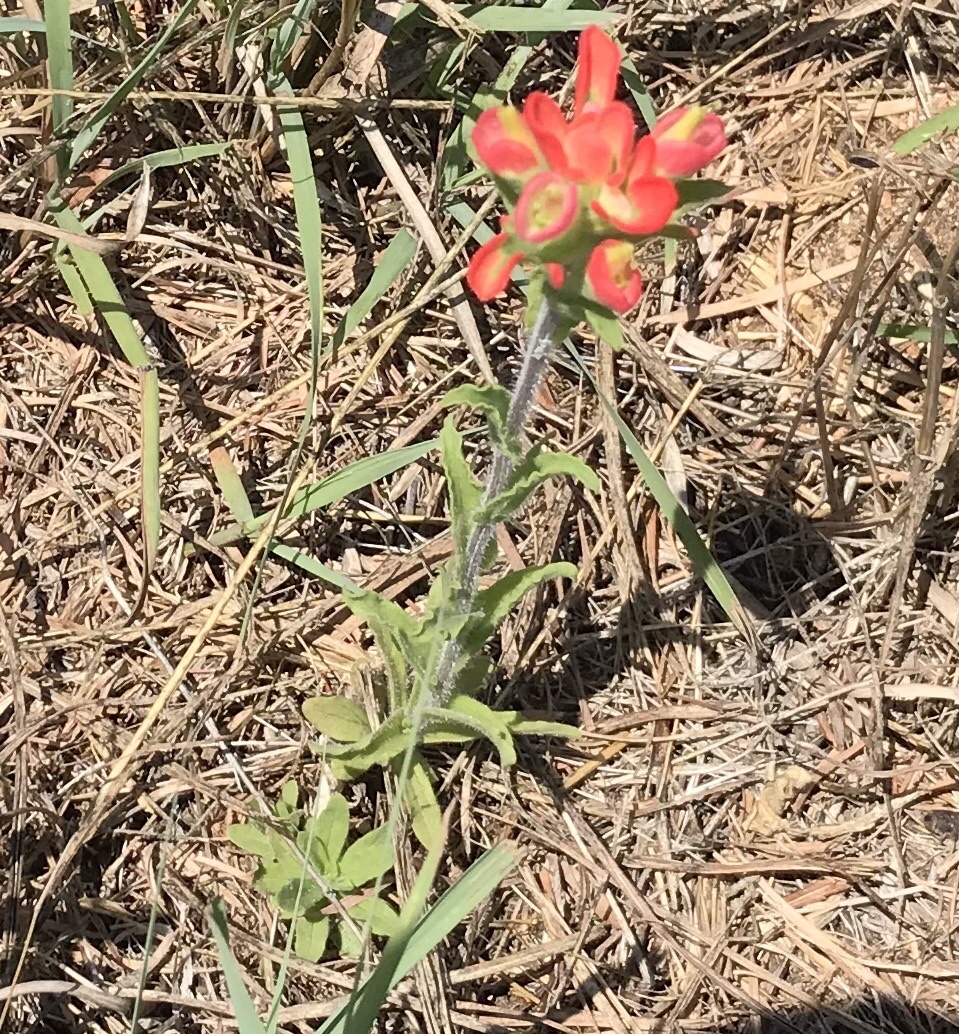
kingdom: Plantae
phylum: Tracheophyta
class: Magnoliopsida
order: Lamiales
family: Orobanchaceae
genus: Castilleja
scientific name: Castilleja indivisa
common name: Texas paintbrush
